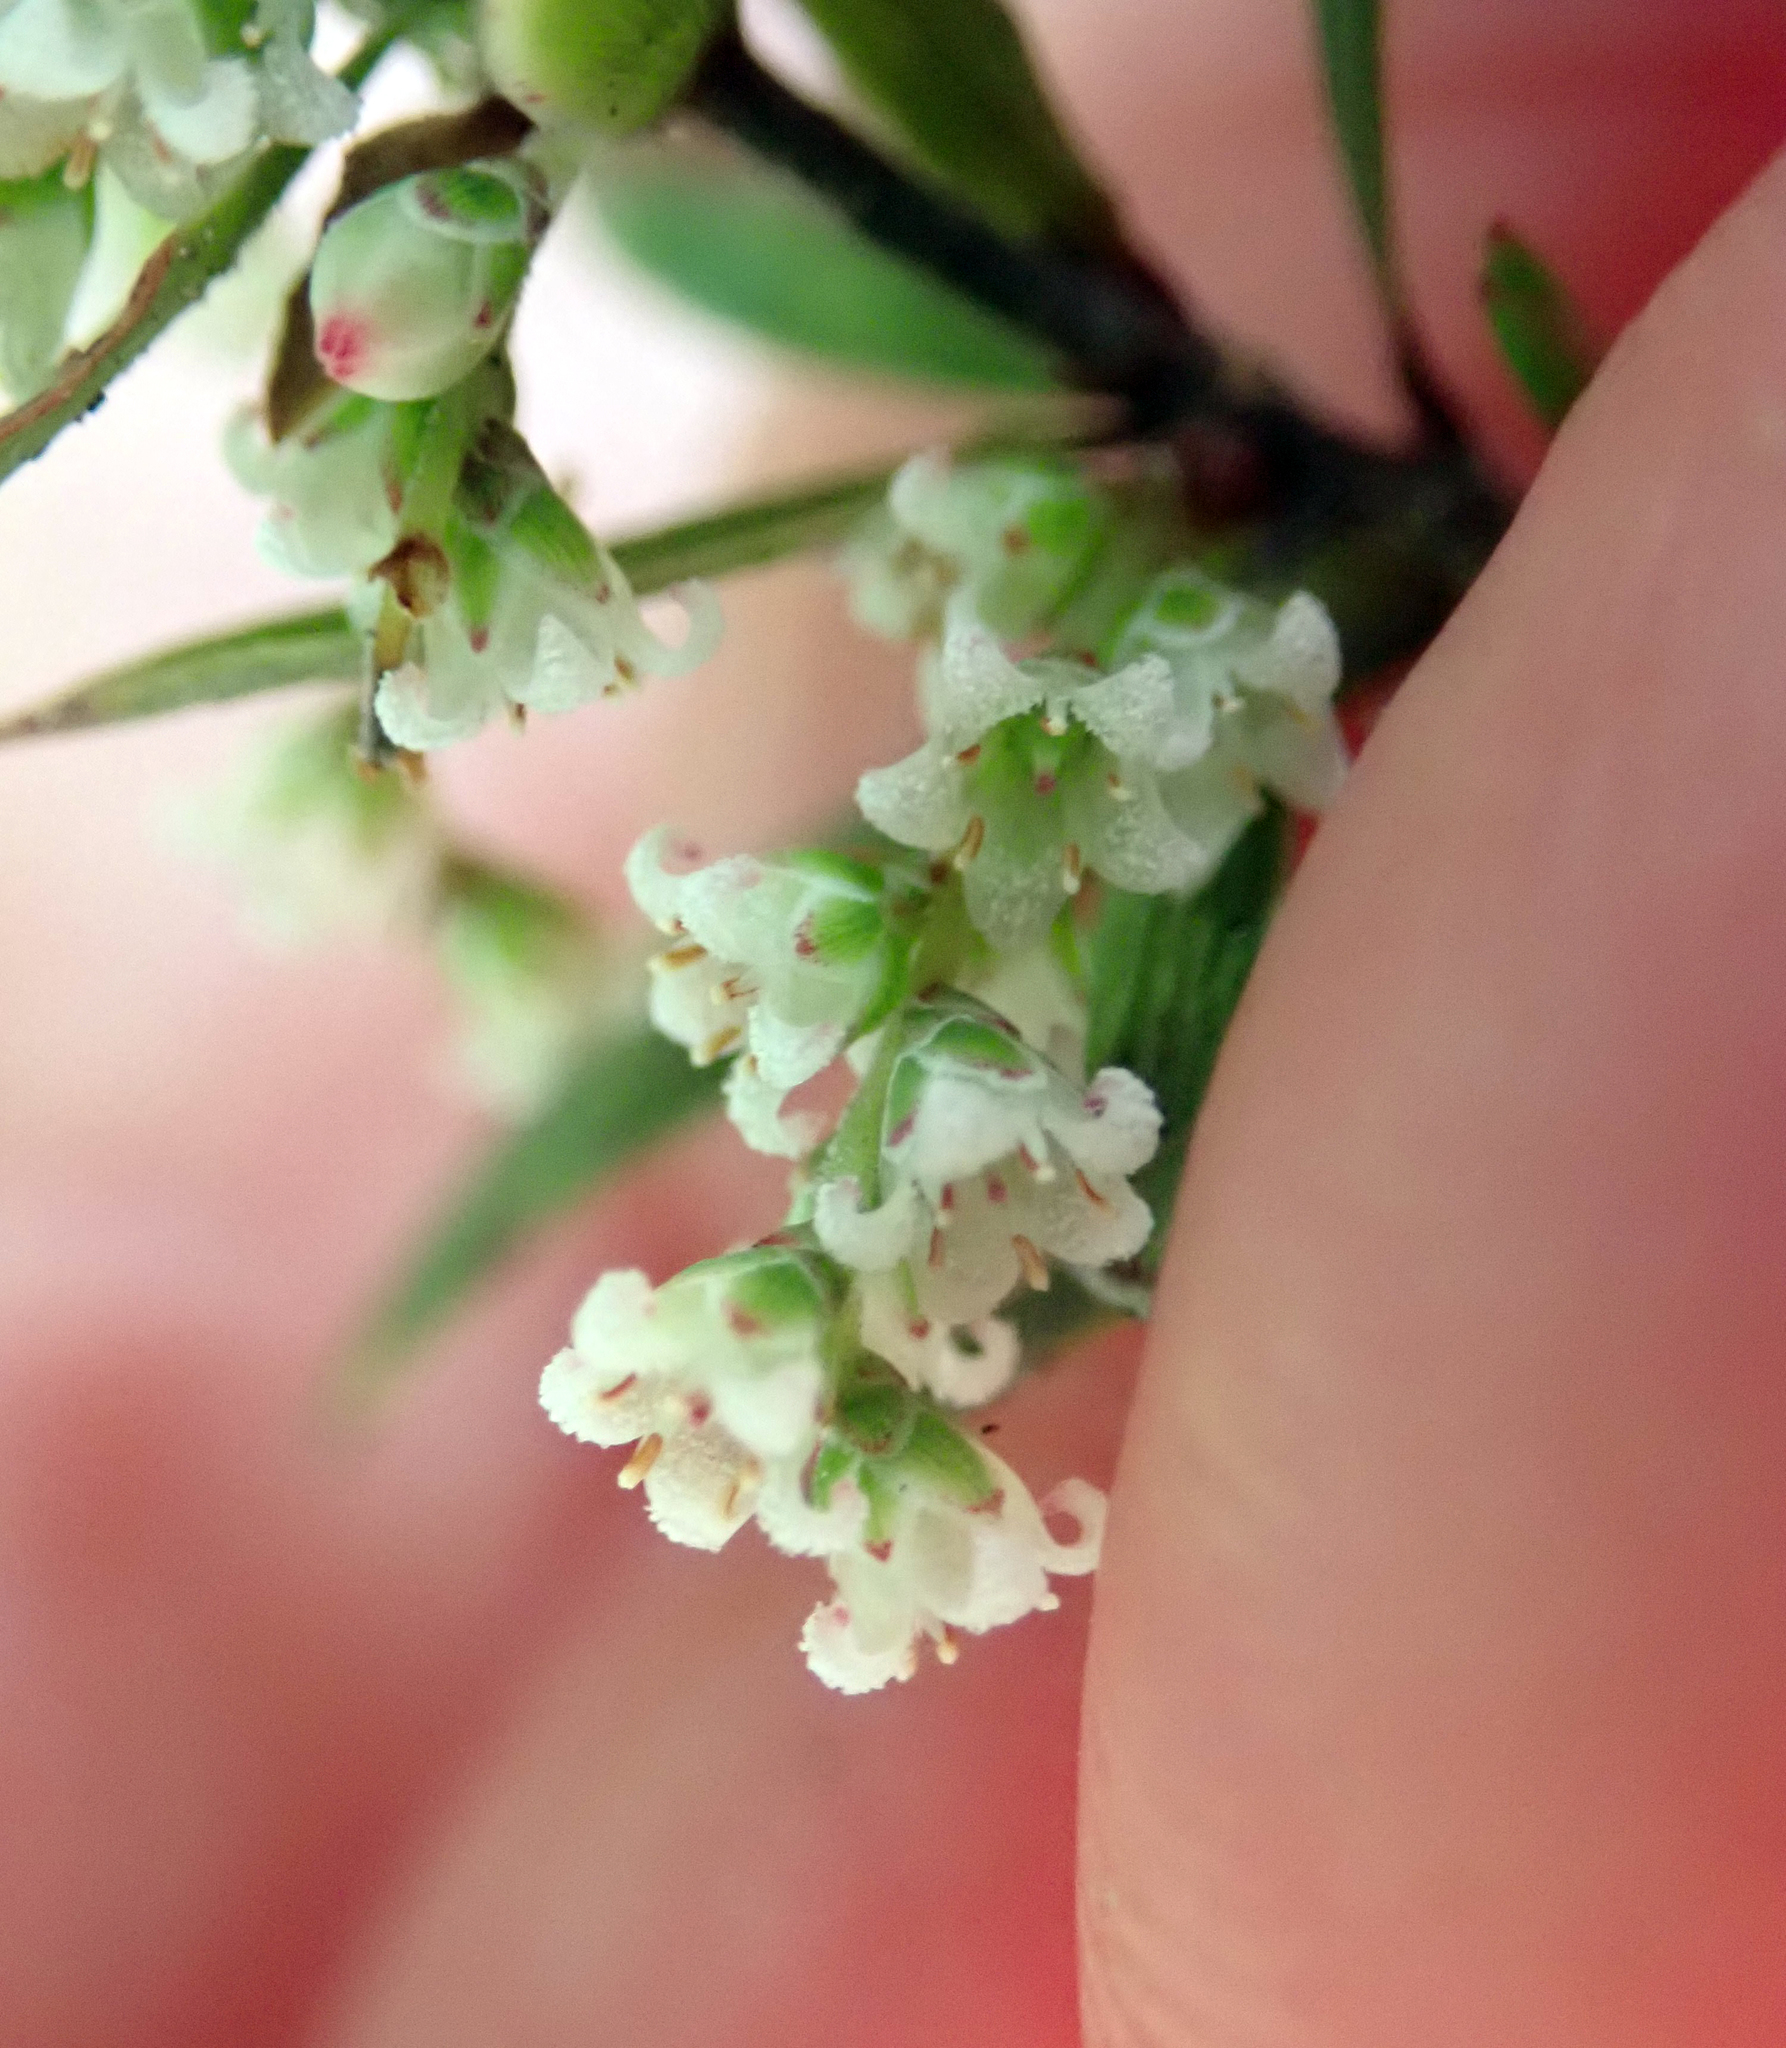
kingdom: Plantae
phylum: Tracheophyta
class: Magnoliopsida
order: Ericales
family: Ericaceae
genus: Leucopogon
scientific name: Leucopogon fasciculatus
